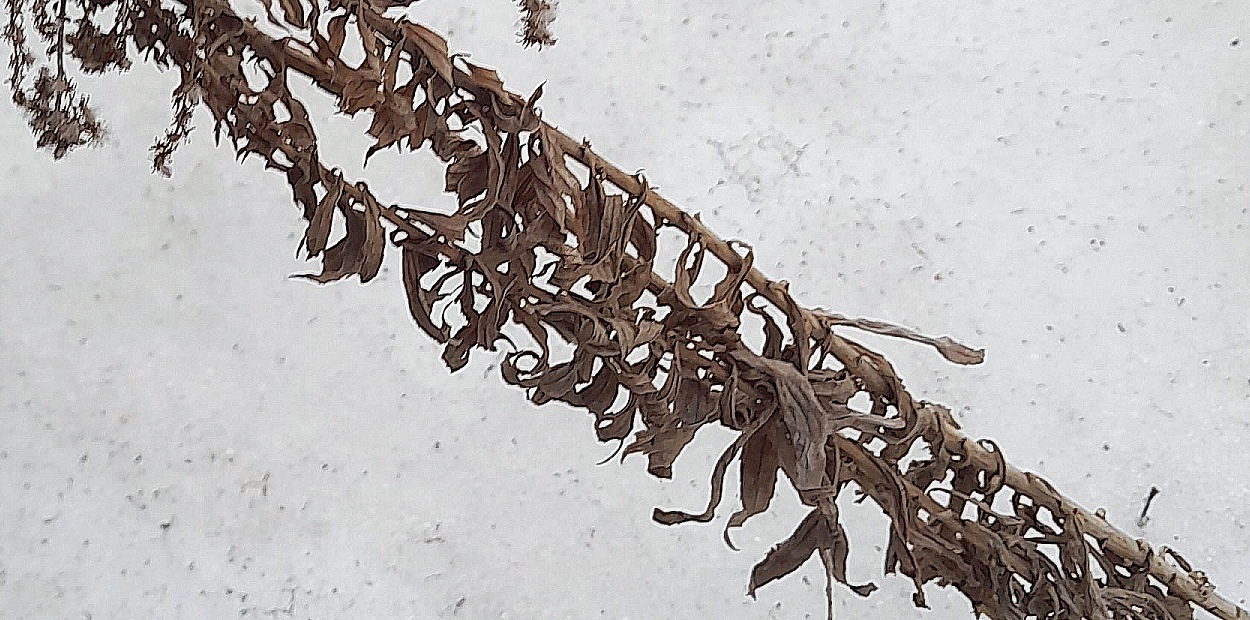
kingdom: Plantae
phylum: Tracheophyta
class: Magnoliopsida
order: Asterales
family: Asteraceae
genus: Solidago
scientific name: Solidago canadensis
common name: Canada goldenrod
